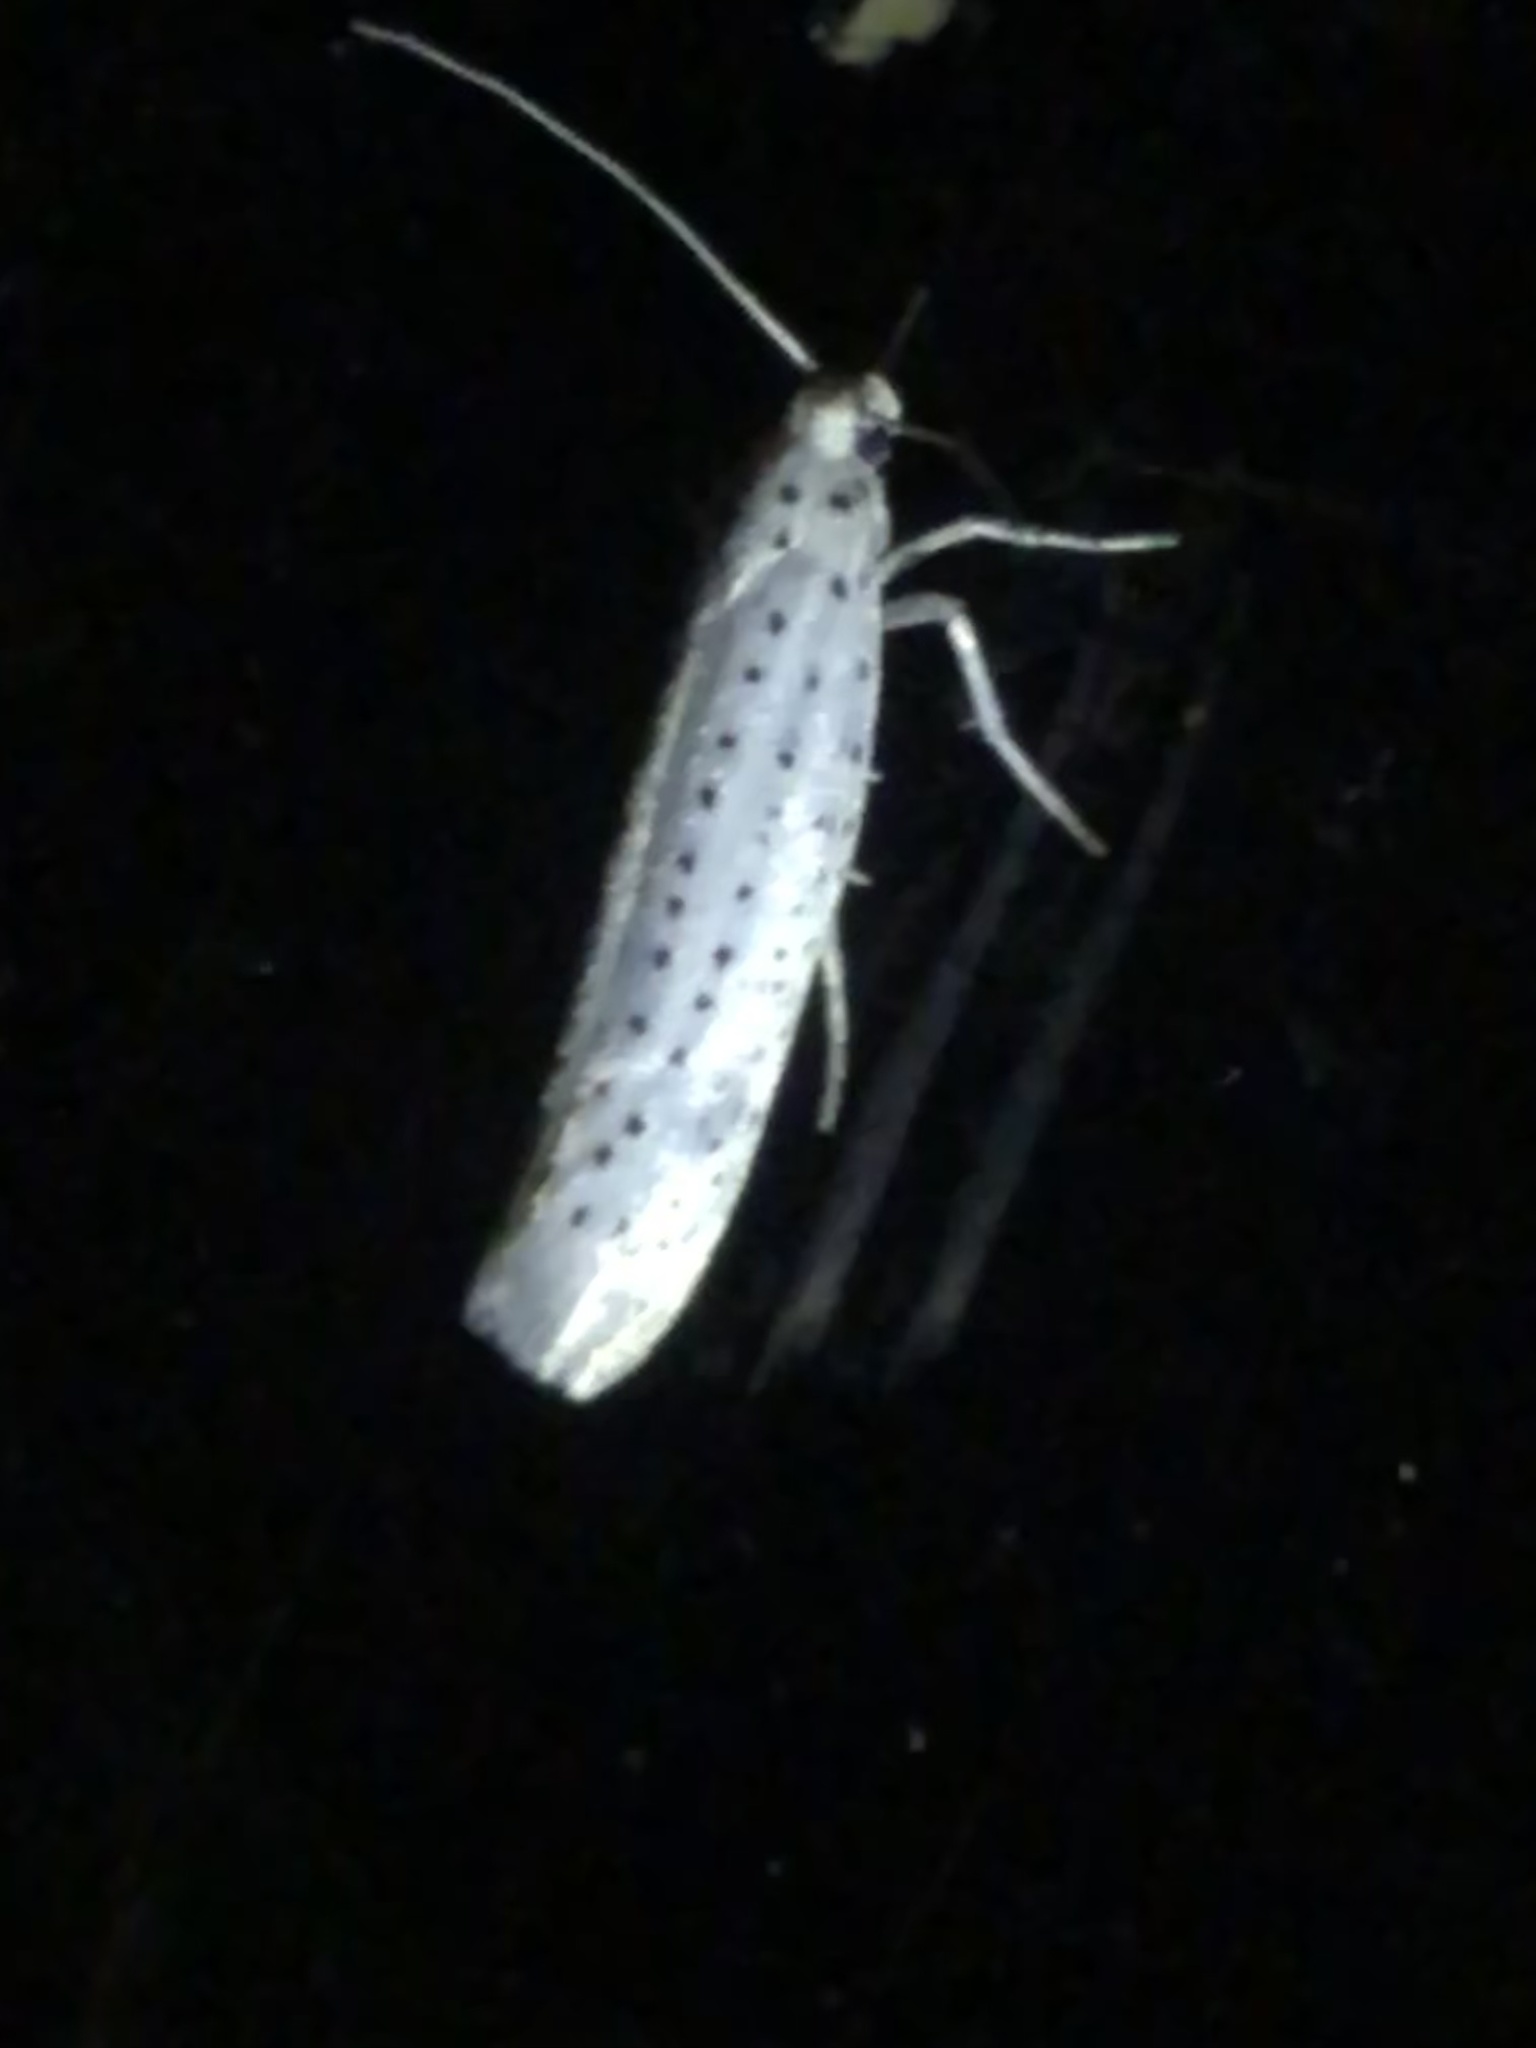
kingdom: Animalia
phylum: Arthropoda
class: Insecta
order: Lepidoptera
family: Yponomeutidae
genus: Yponomeuta
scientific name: Yponomeuta evonymella
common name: Bird-cherry ermine
